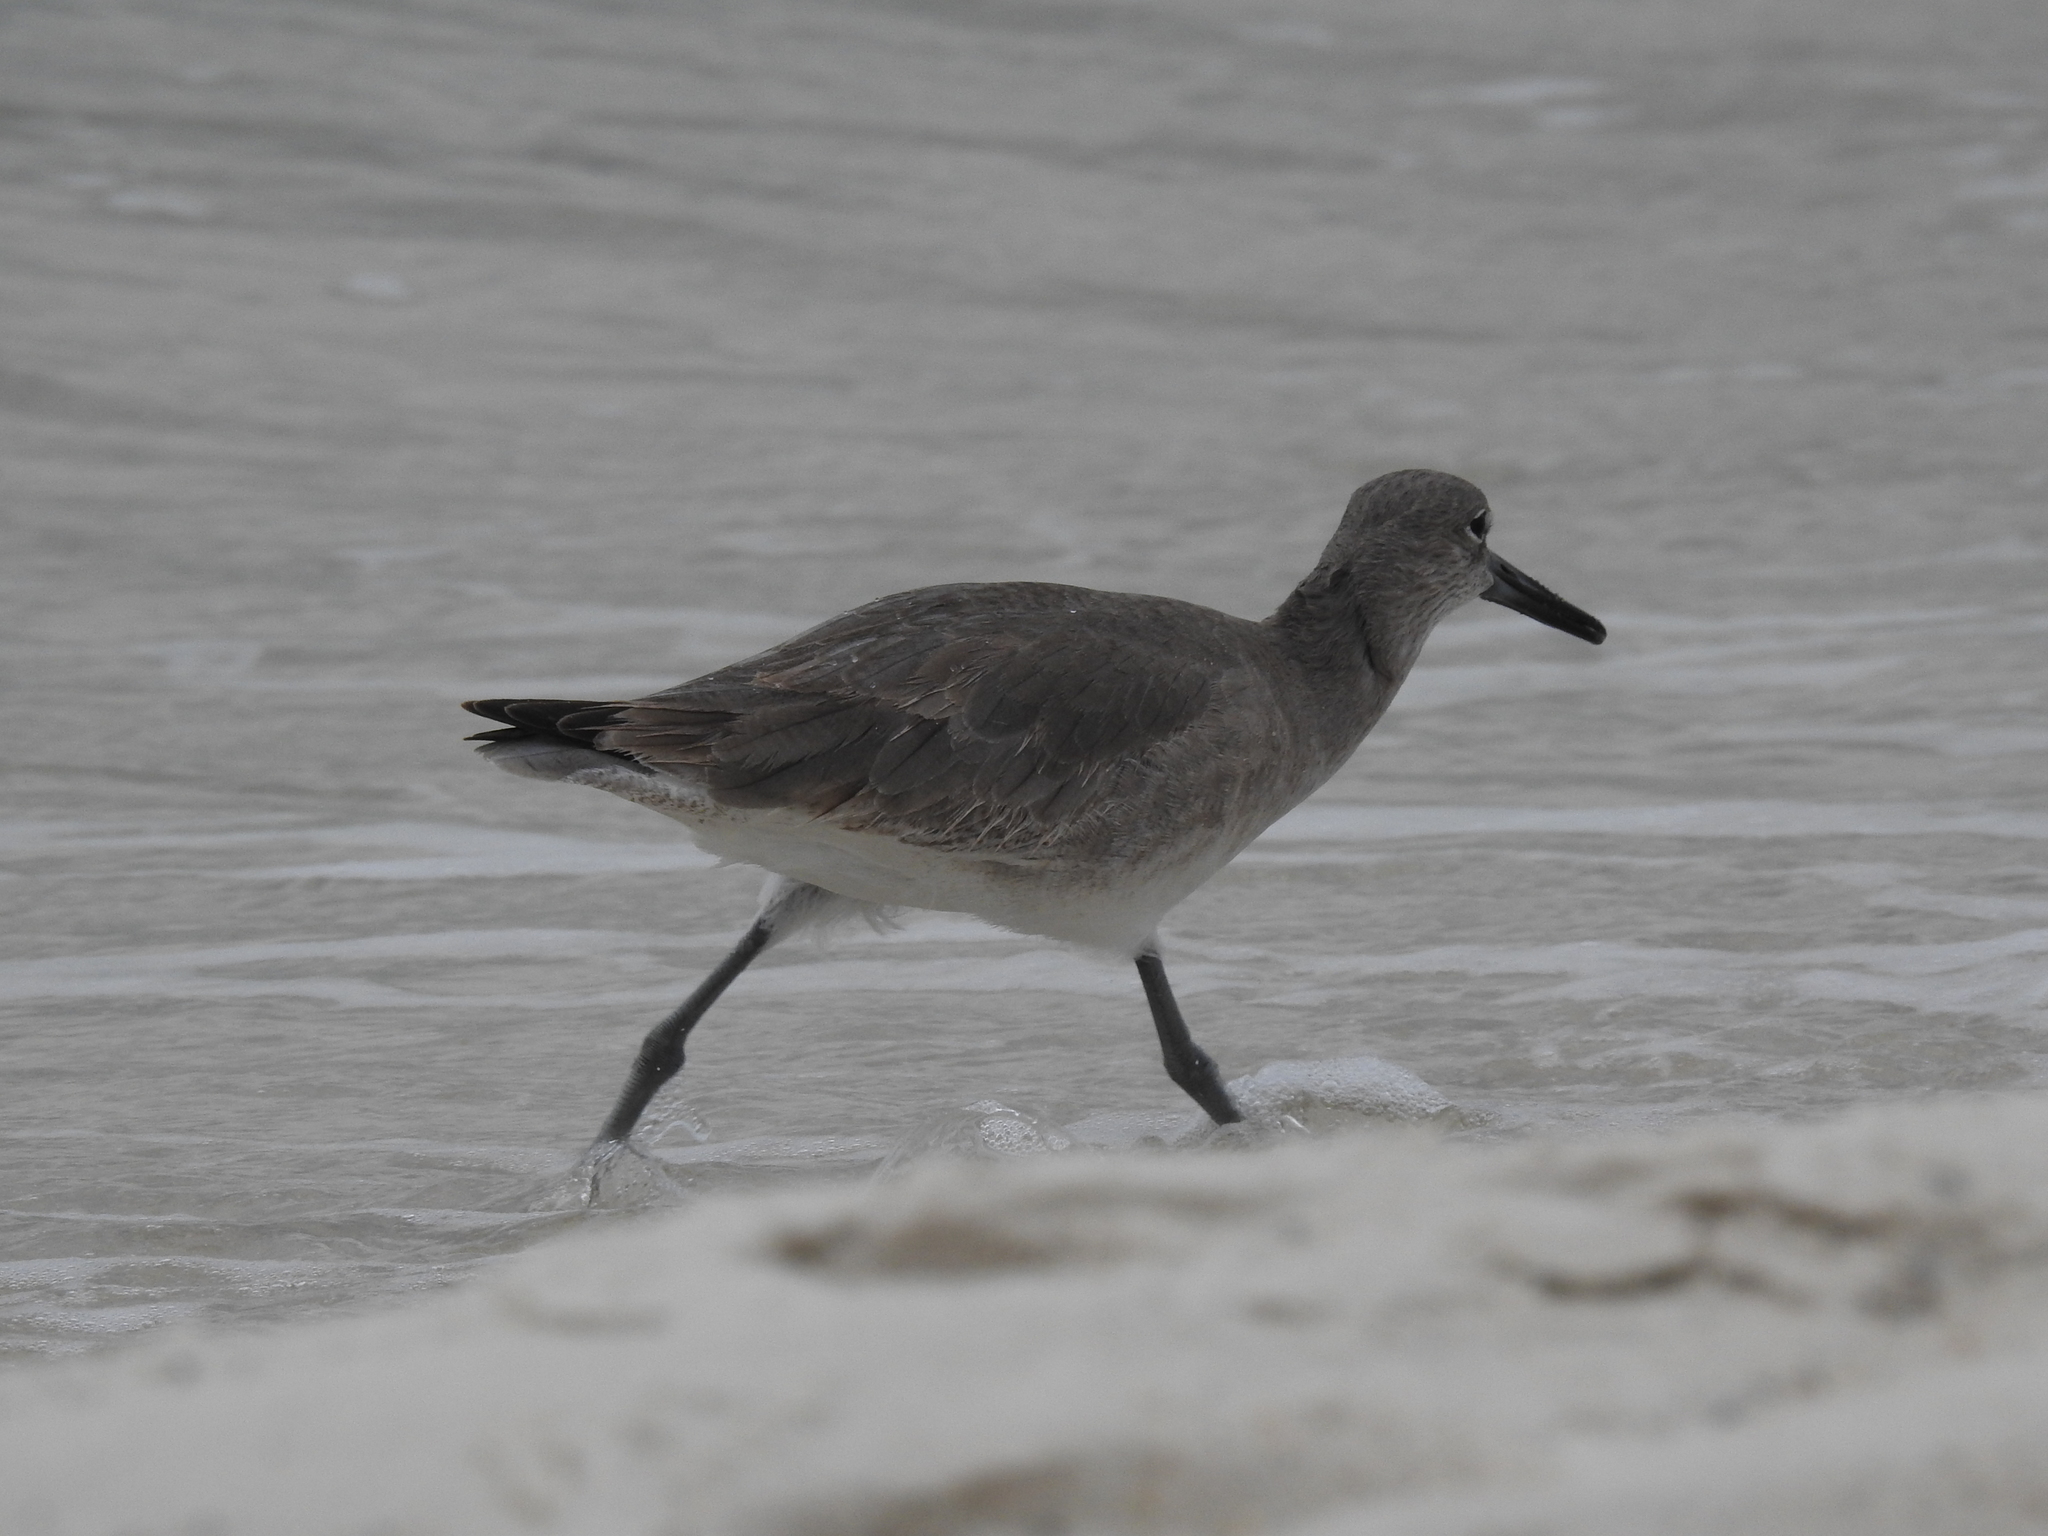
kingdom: Animalia
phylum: Chordata
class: Aves
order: Charadriiformes
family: Scolopacidae
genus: Tringa
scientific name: Tringa semipalmata
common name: Willet
